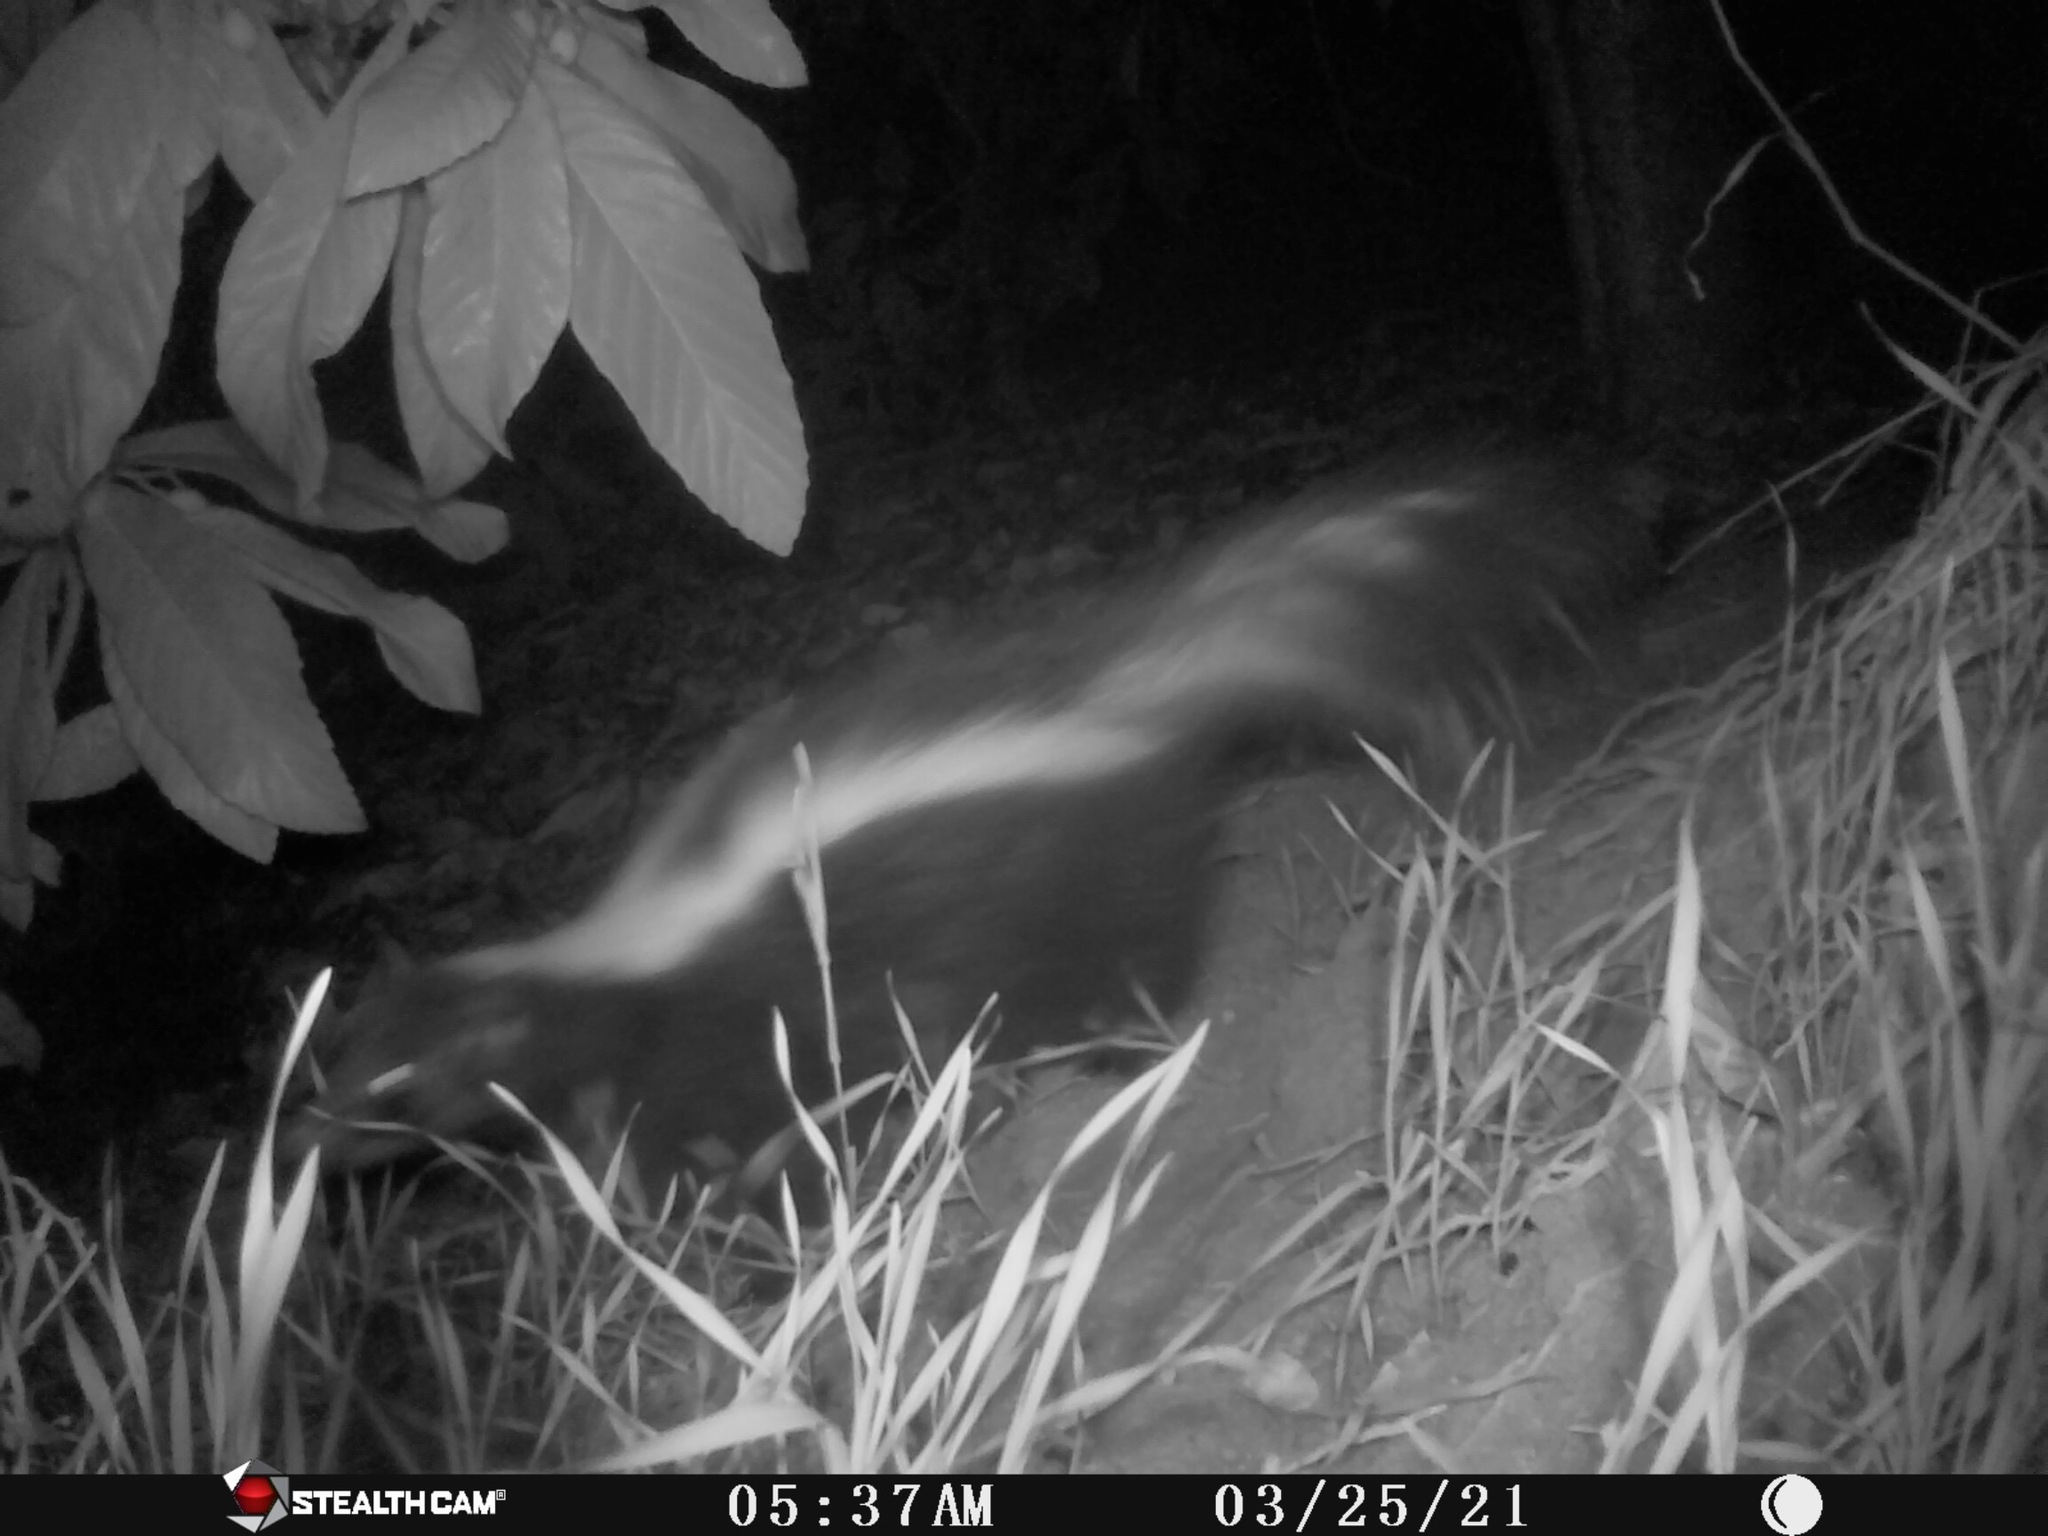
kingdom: Animalia
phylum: Chordata
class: Mammalia
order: Carnivora
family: Mephitidae
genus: Mephitis
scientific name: Mephitis mephitis
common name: Striped skunk
